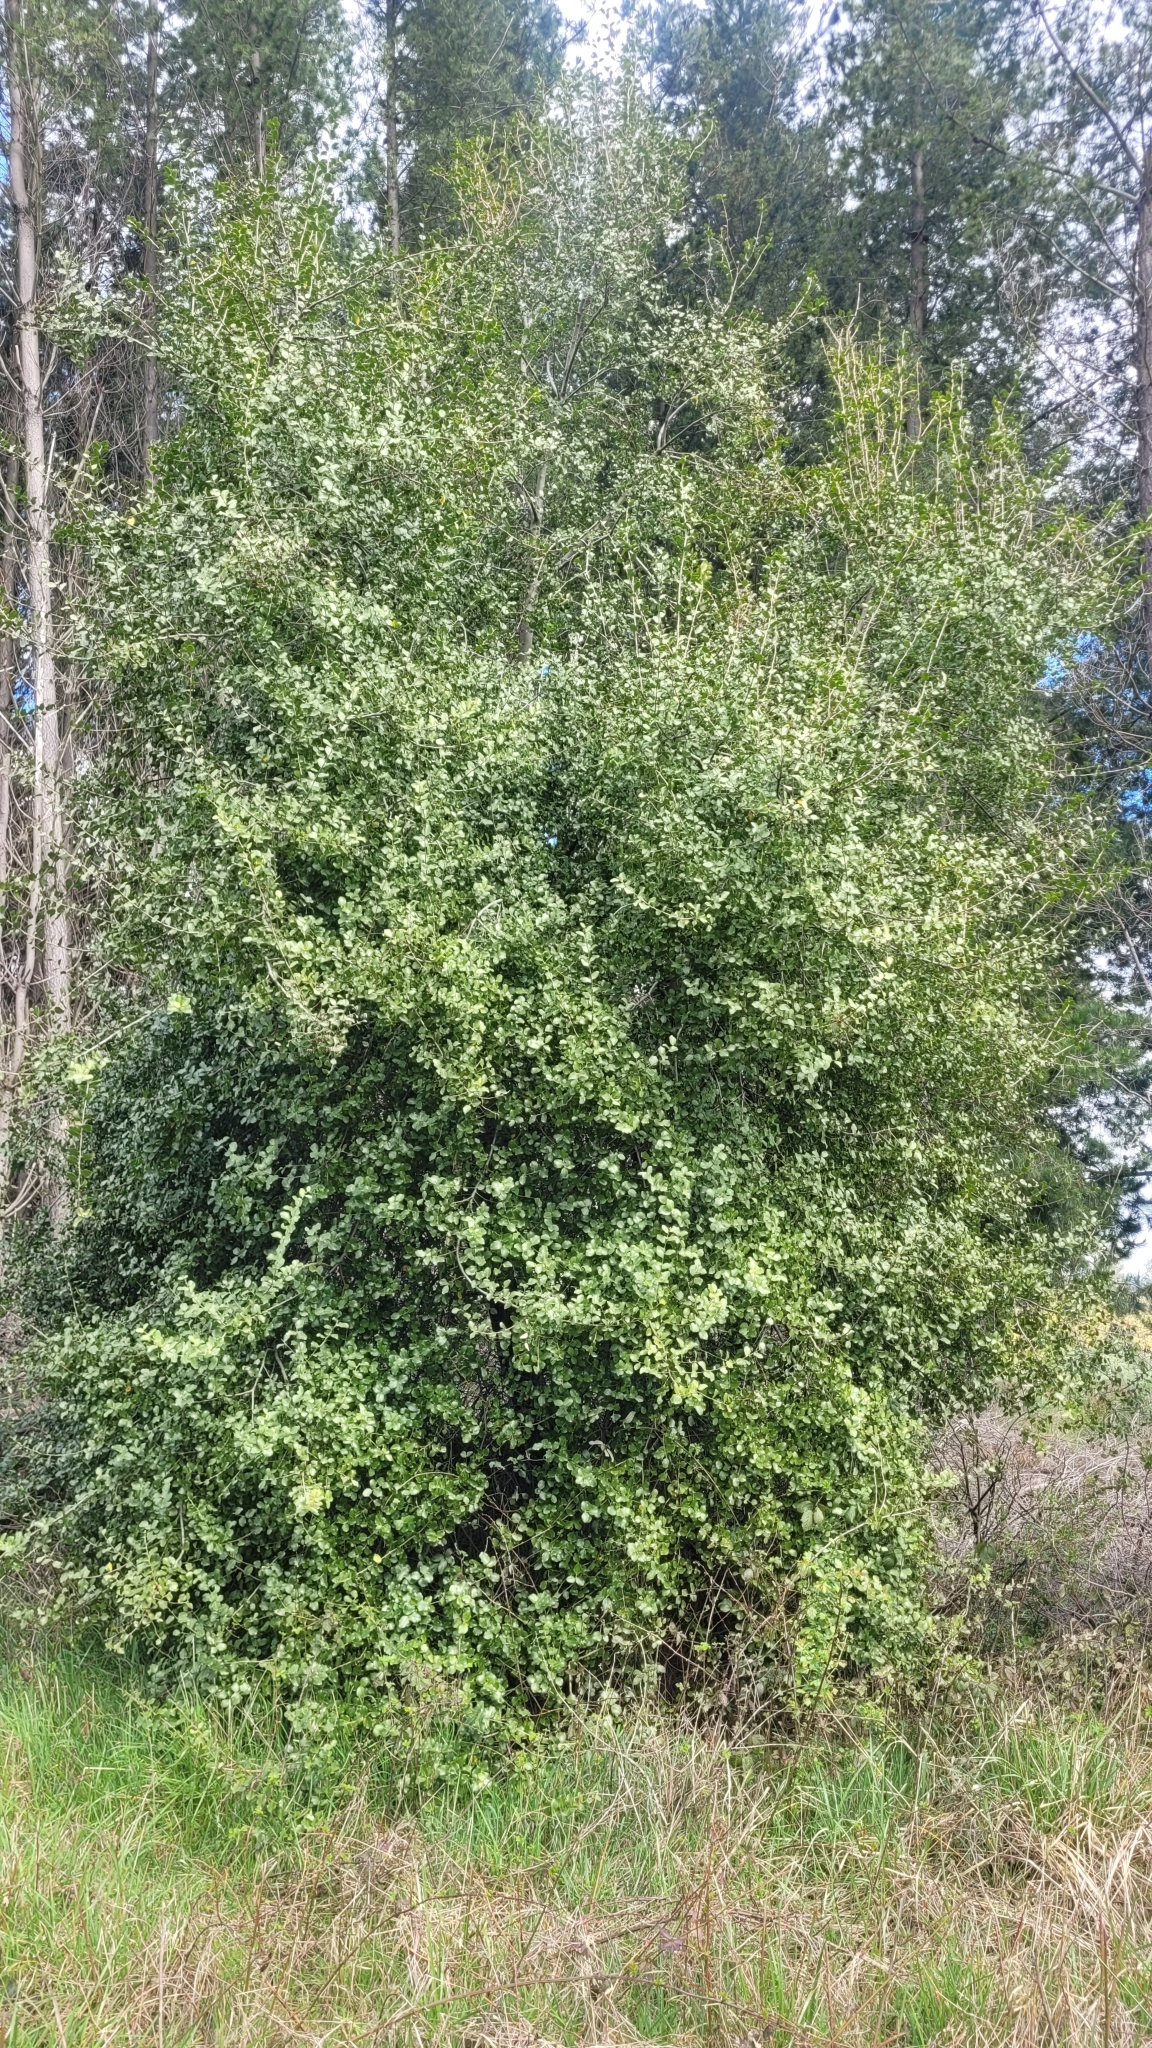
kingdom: Plantae
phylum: Tracheophyta
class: Magnoliopsida
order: Fabales
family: Quillajaceae
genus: Quillaja
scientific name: Quillaja saponaria
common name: Murillo's-bark
